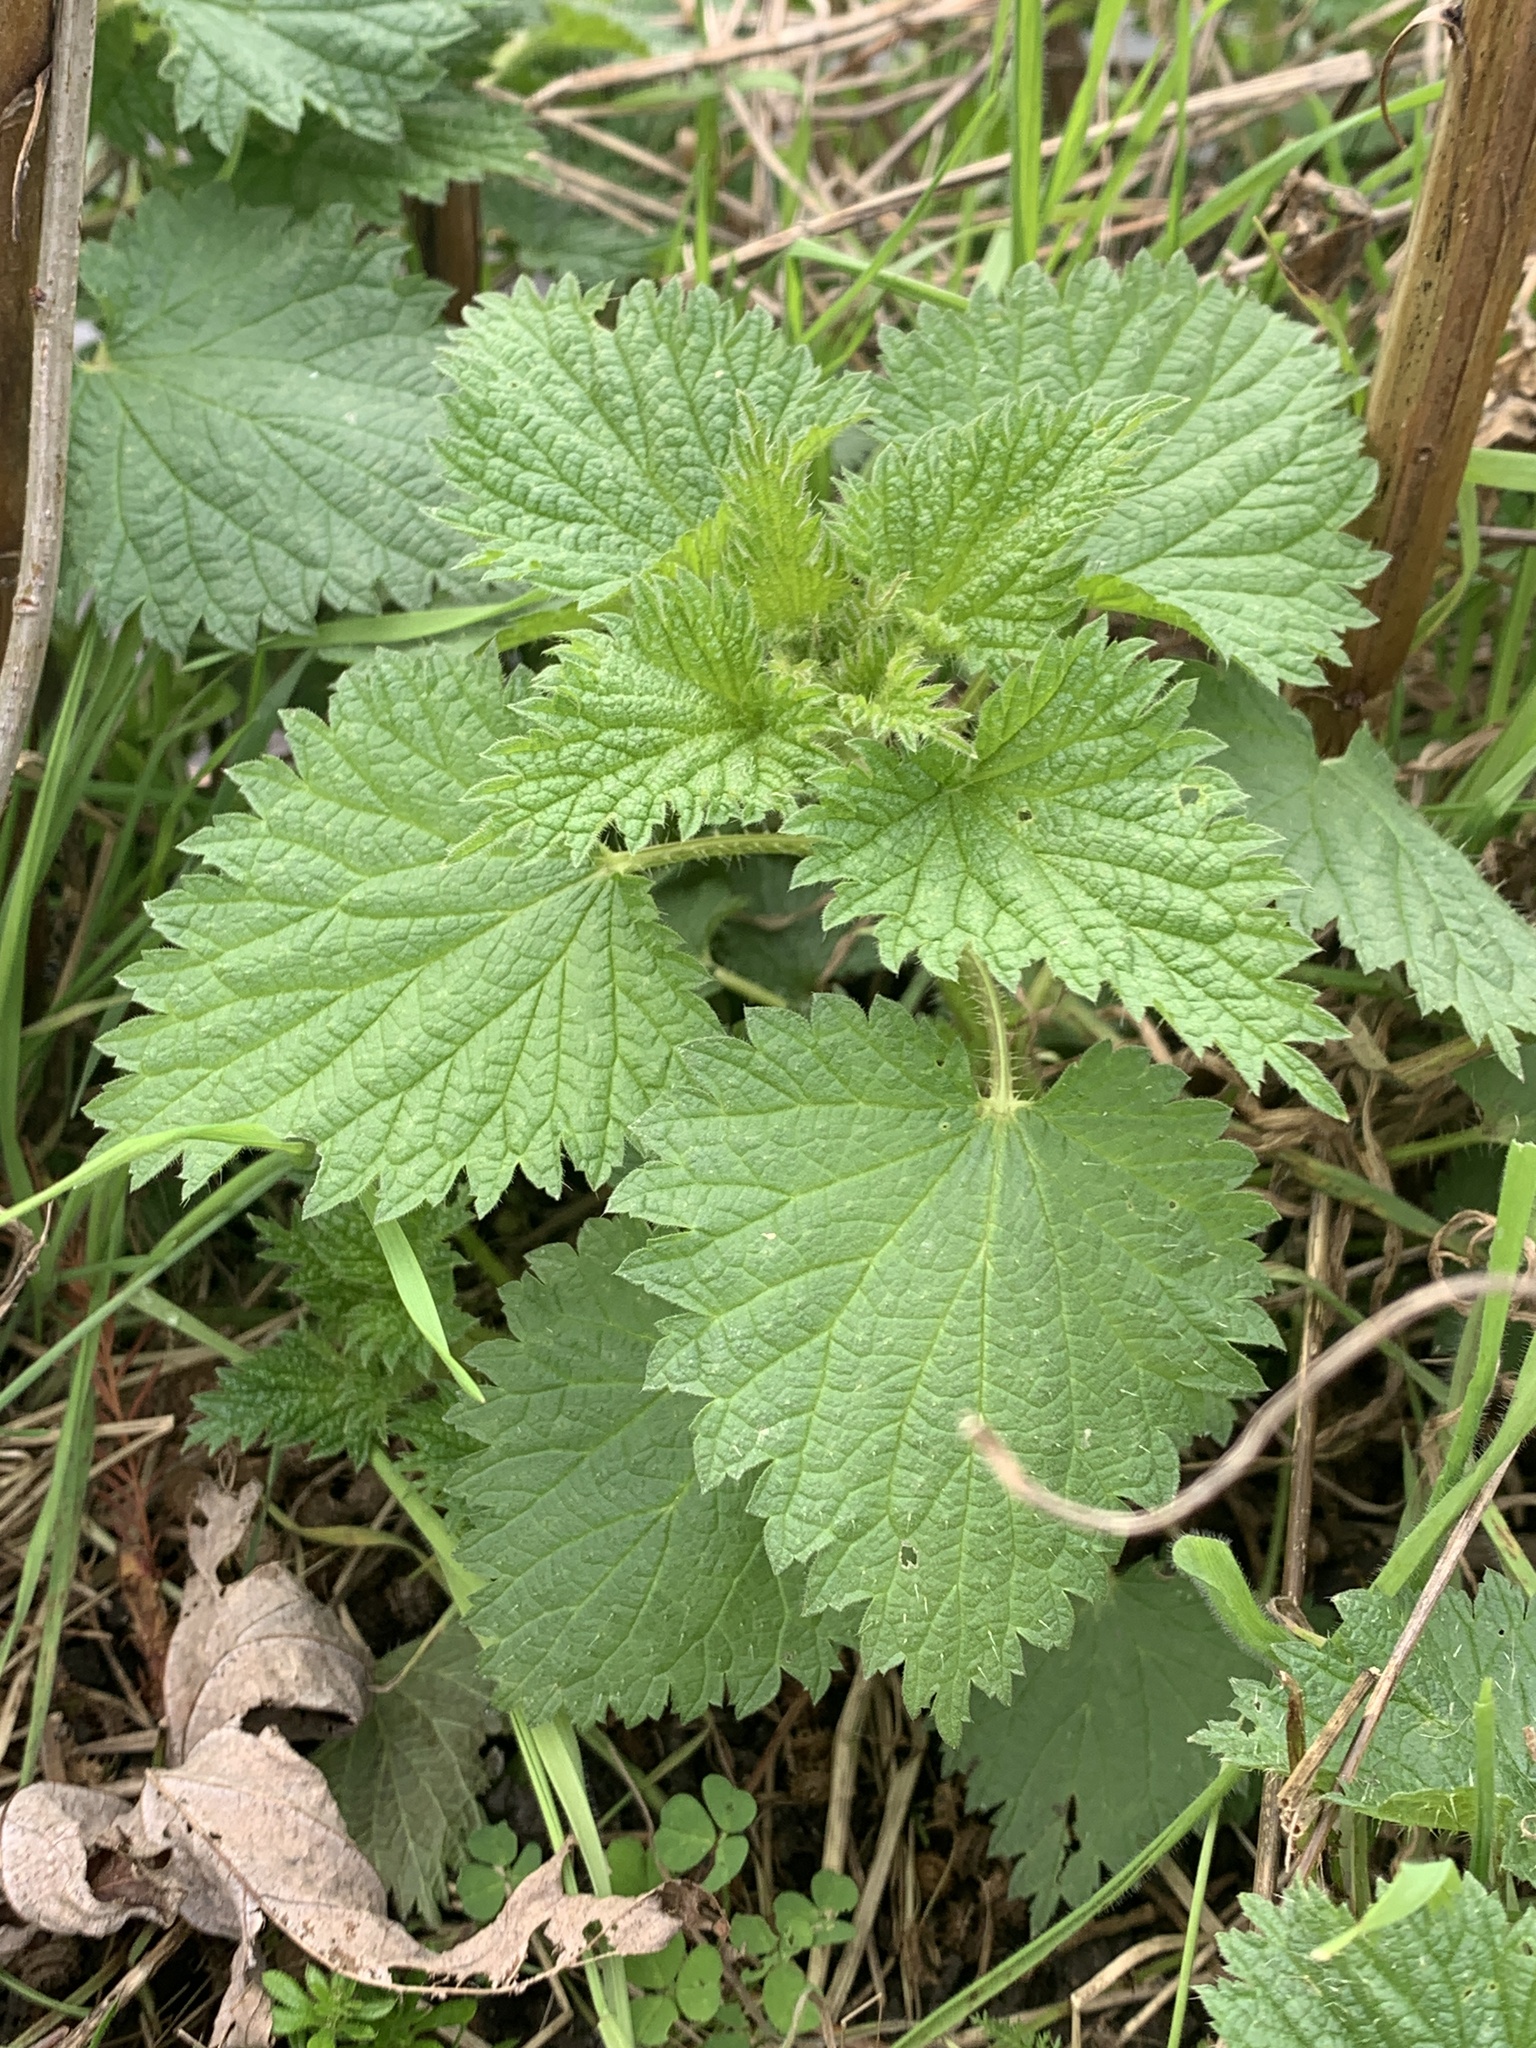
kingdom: Plantae
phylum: Tracheophyta
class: Magnoliopsida
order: Rosales
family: Urticaceae
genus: Urtica
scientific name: Urtica dioica
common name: Common nettle
